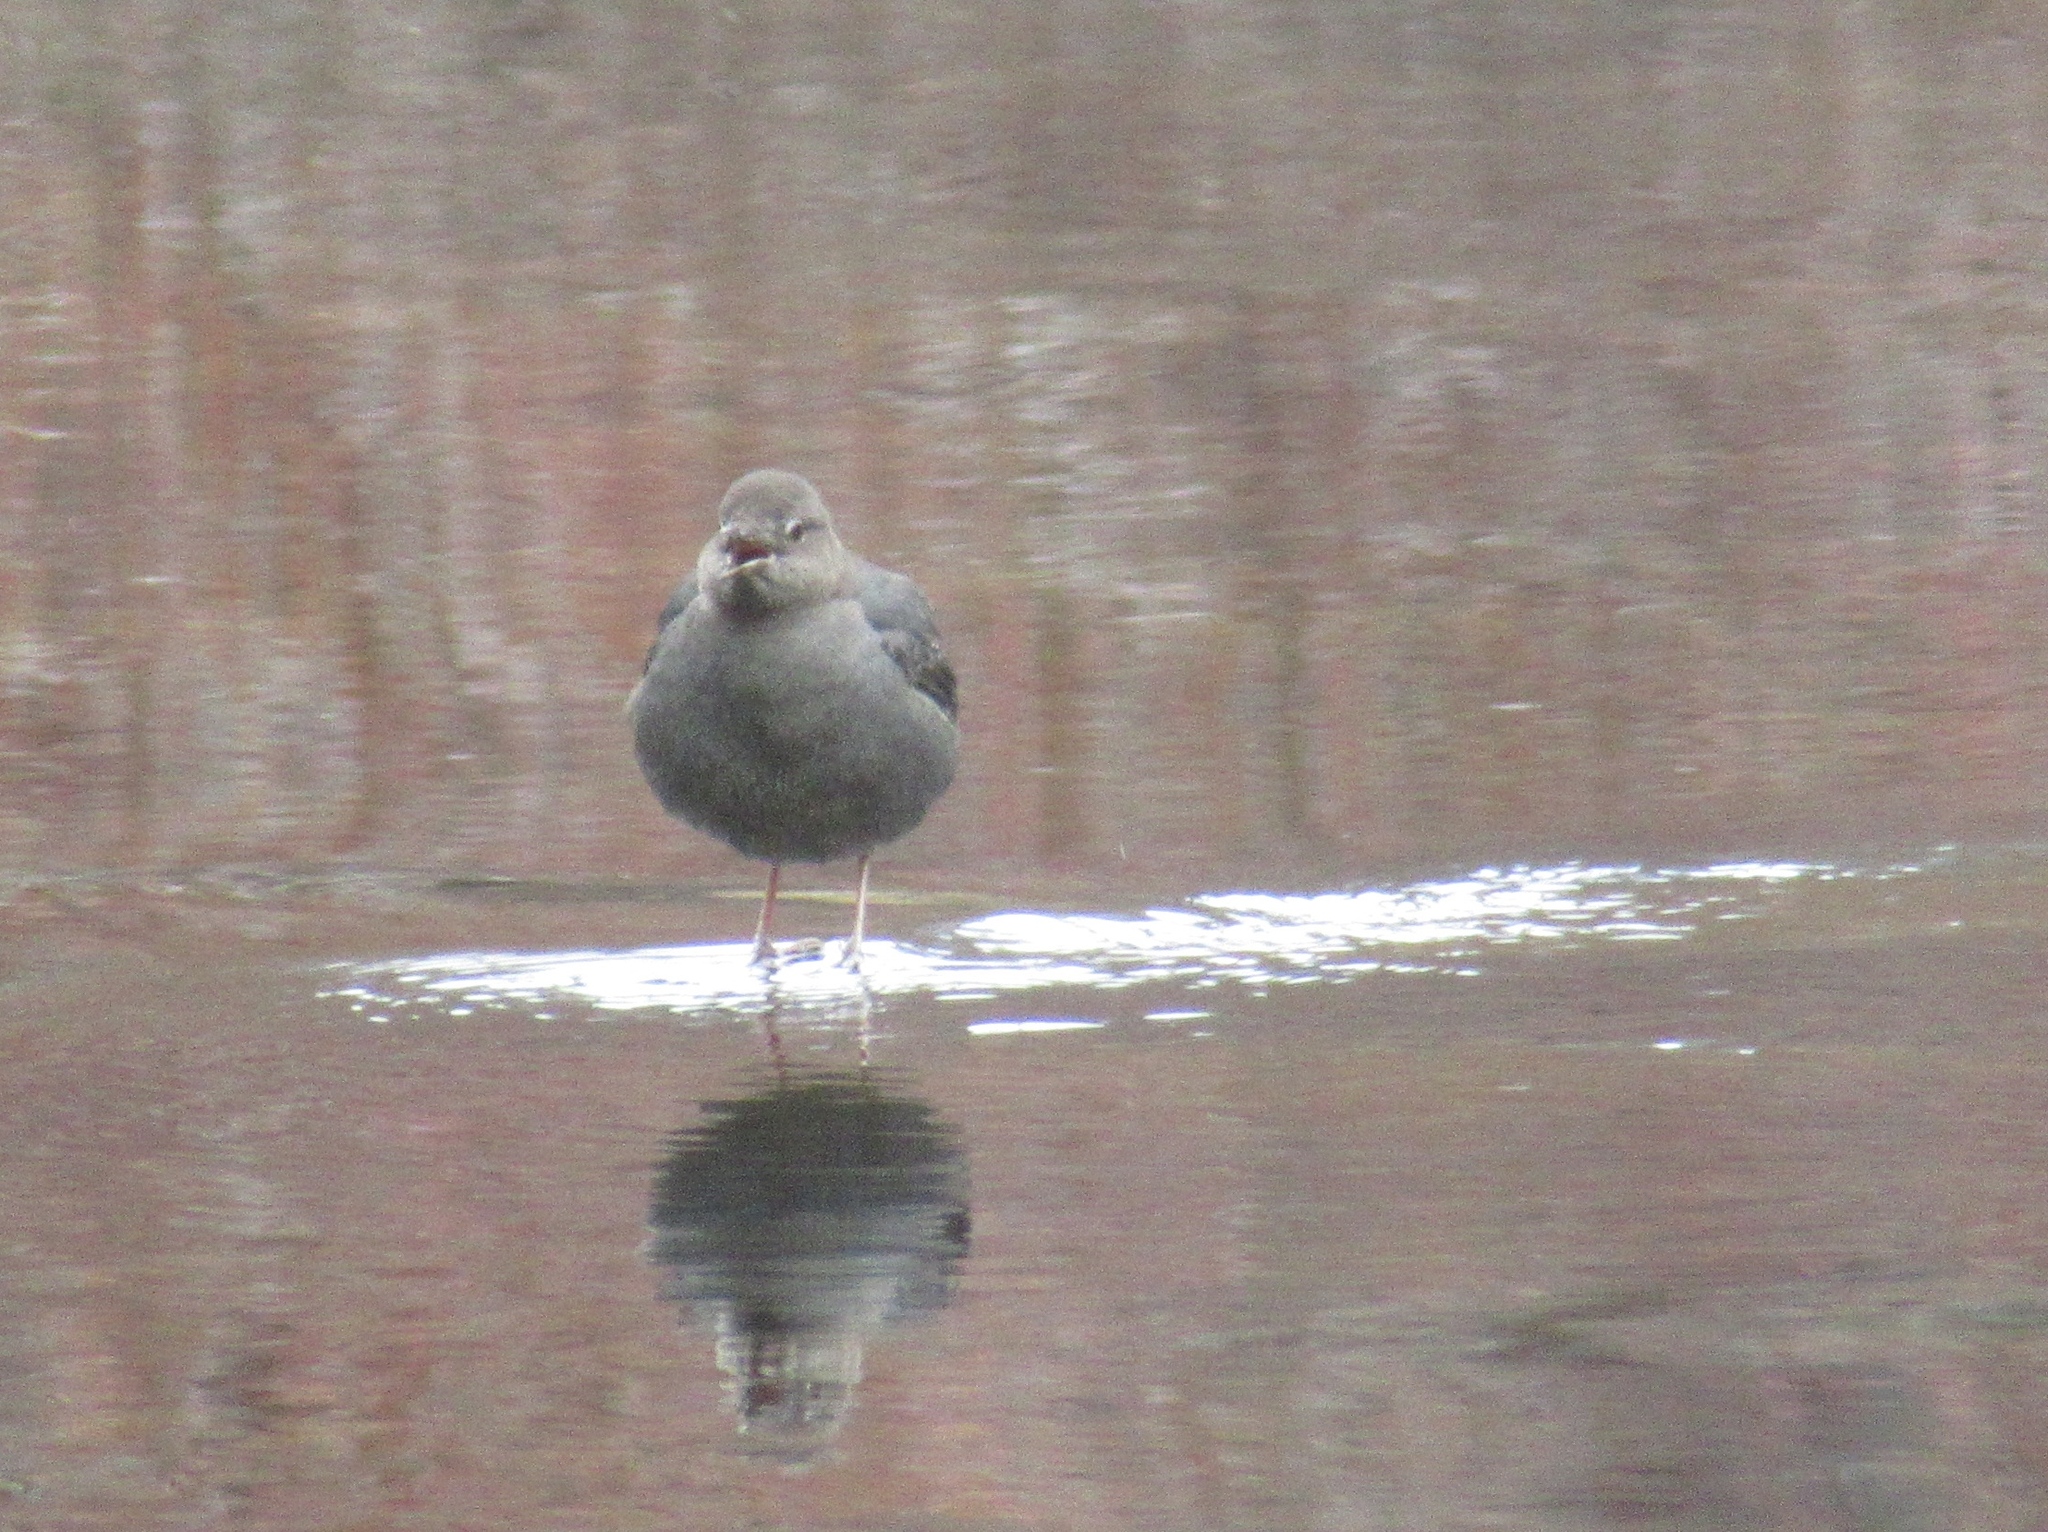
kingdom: Animalia
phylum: Chordata
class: Aves
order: Passeriformes
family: Cinclidae
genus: Cinclus
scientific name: Cinclus mexicanus
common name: American dipper
